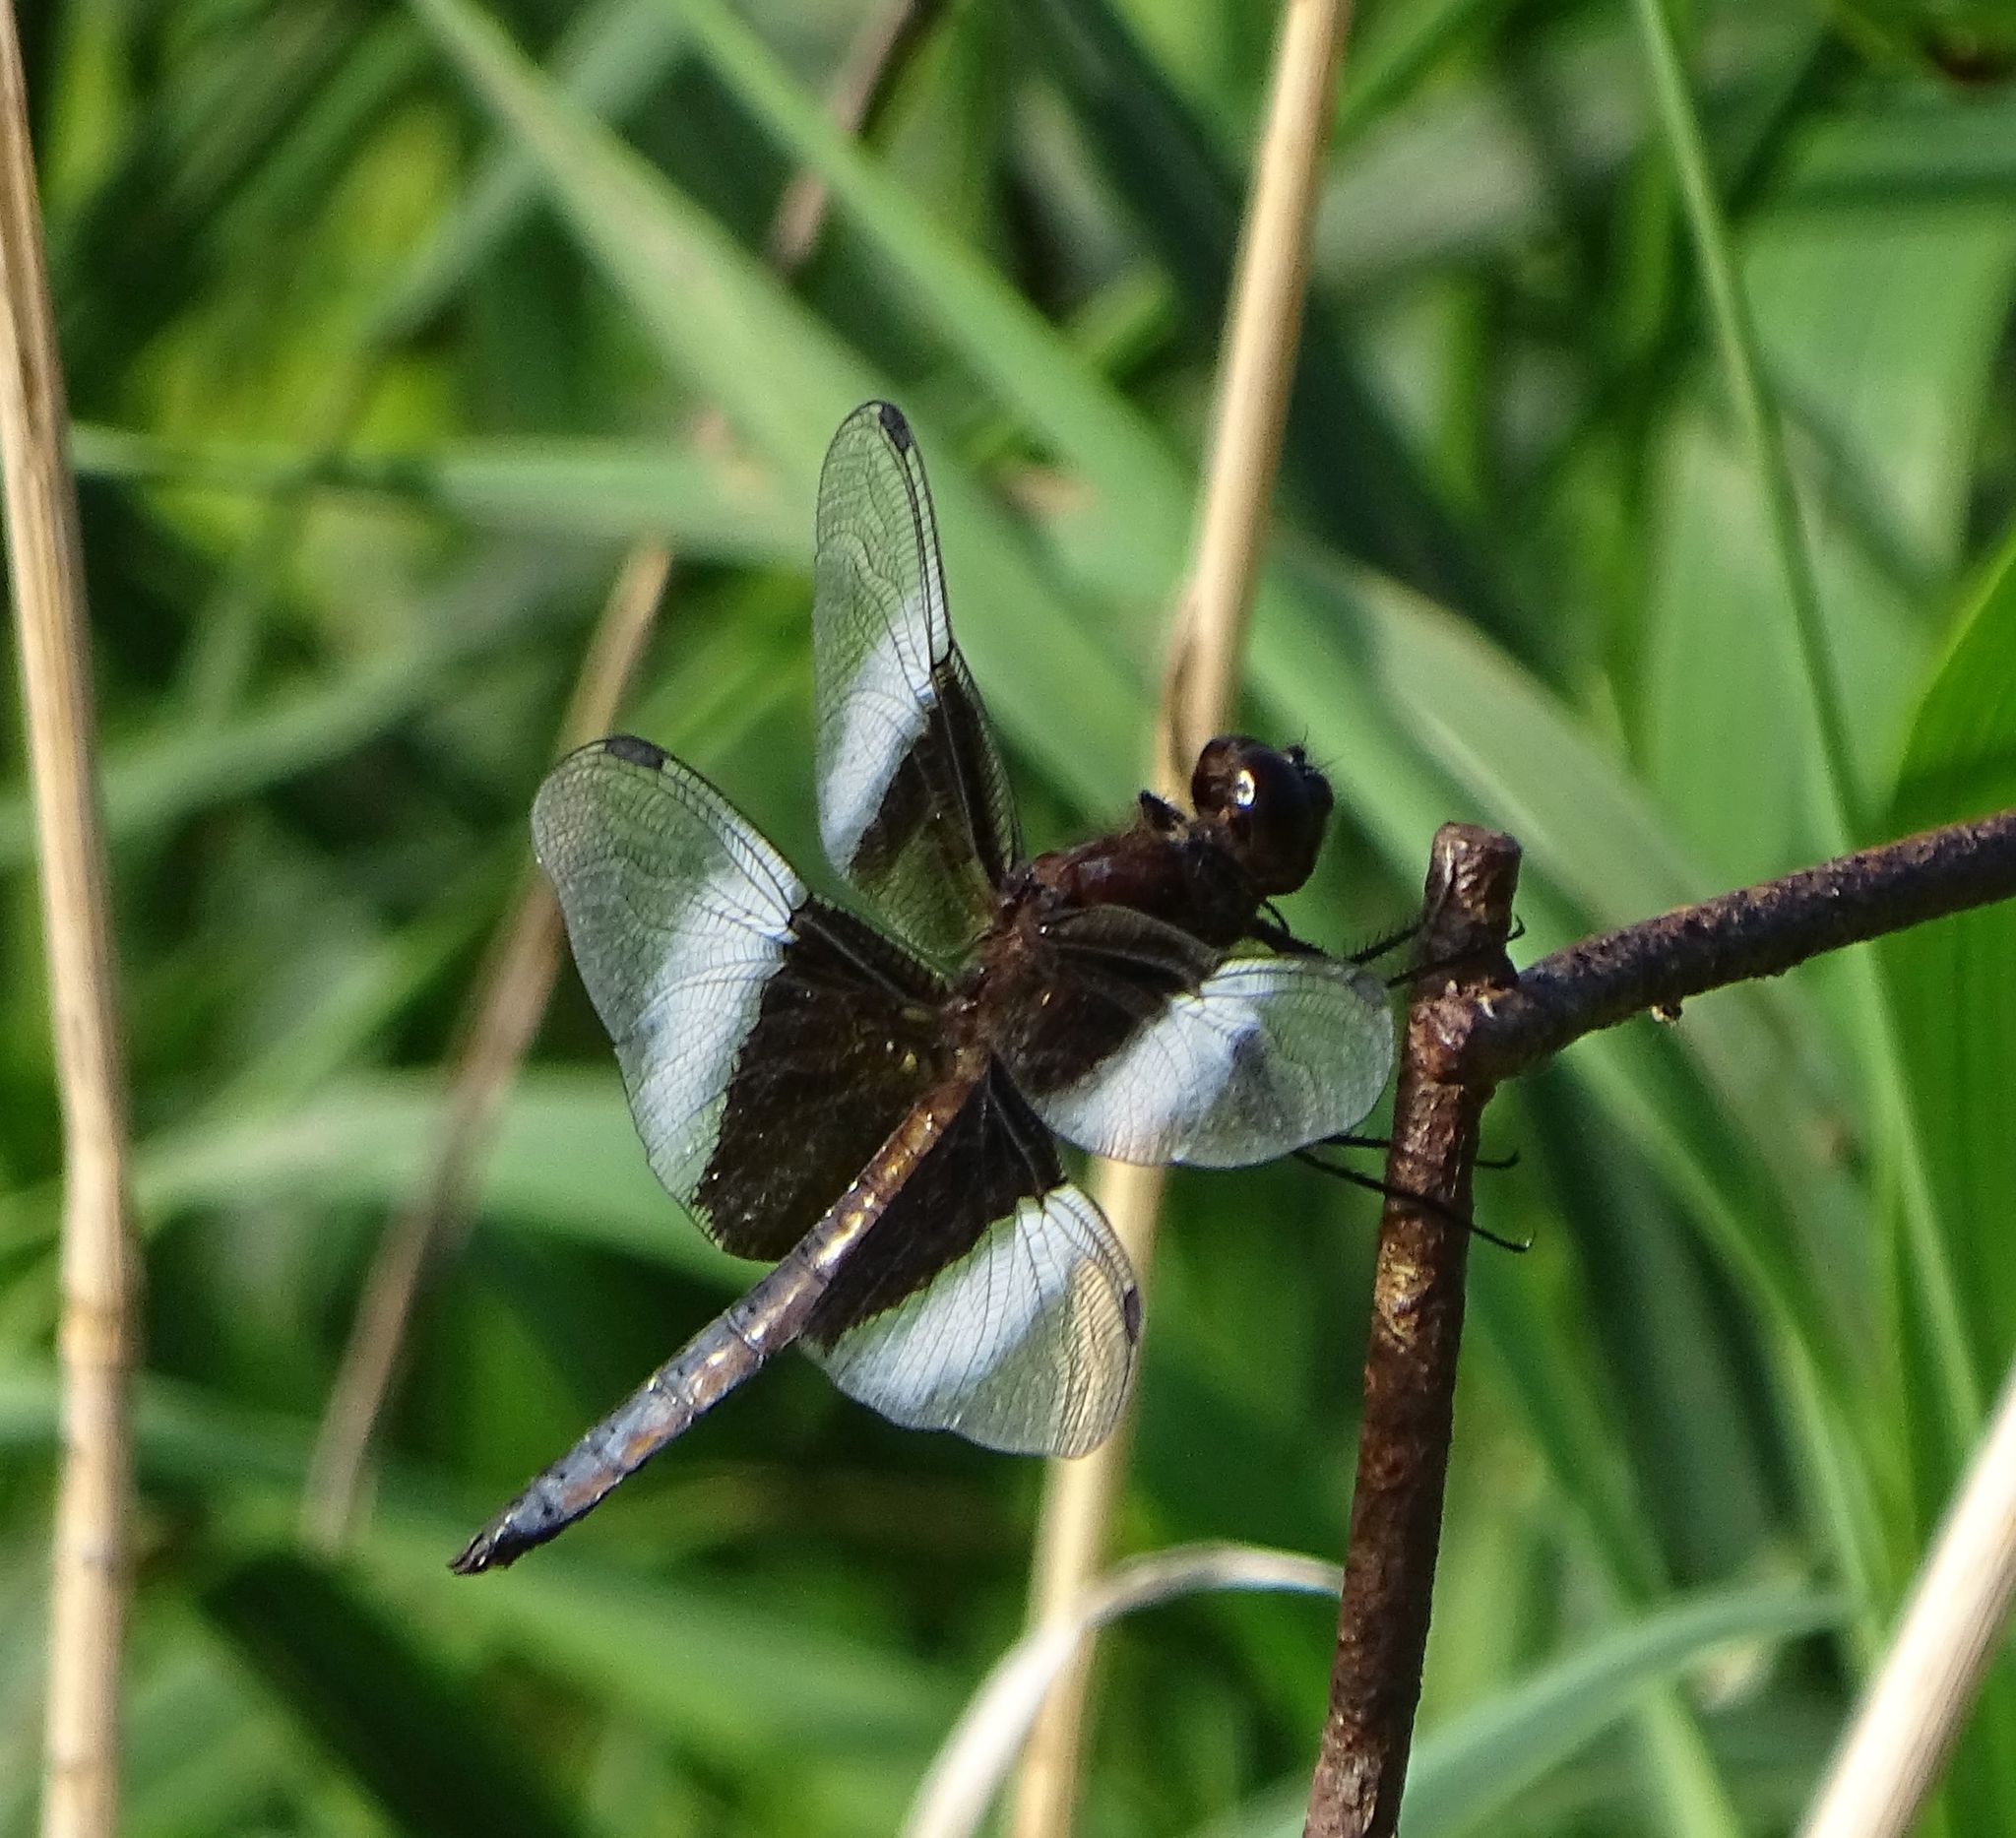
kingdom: Animalia
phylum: Arthropoda
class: Insecta
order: Odonata
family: Libellulidae
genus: Libellula
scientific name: Libellula luctuosa
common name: Widow skimmer
